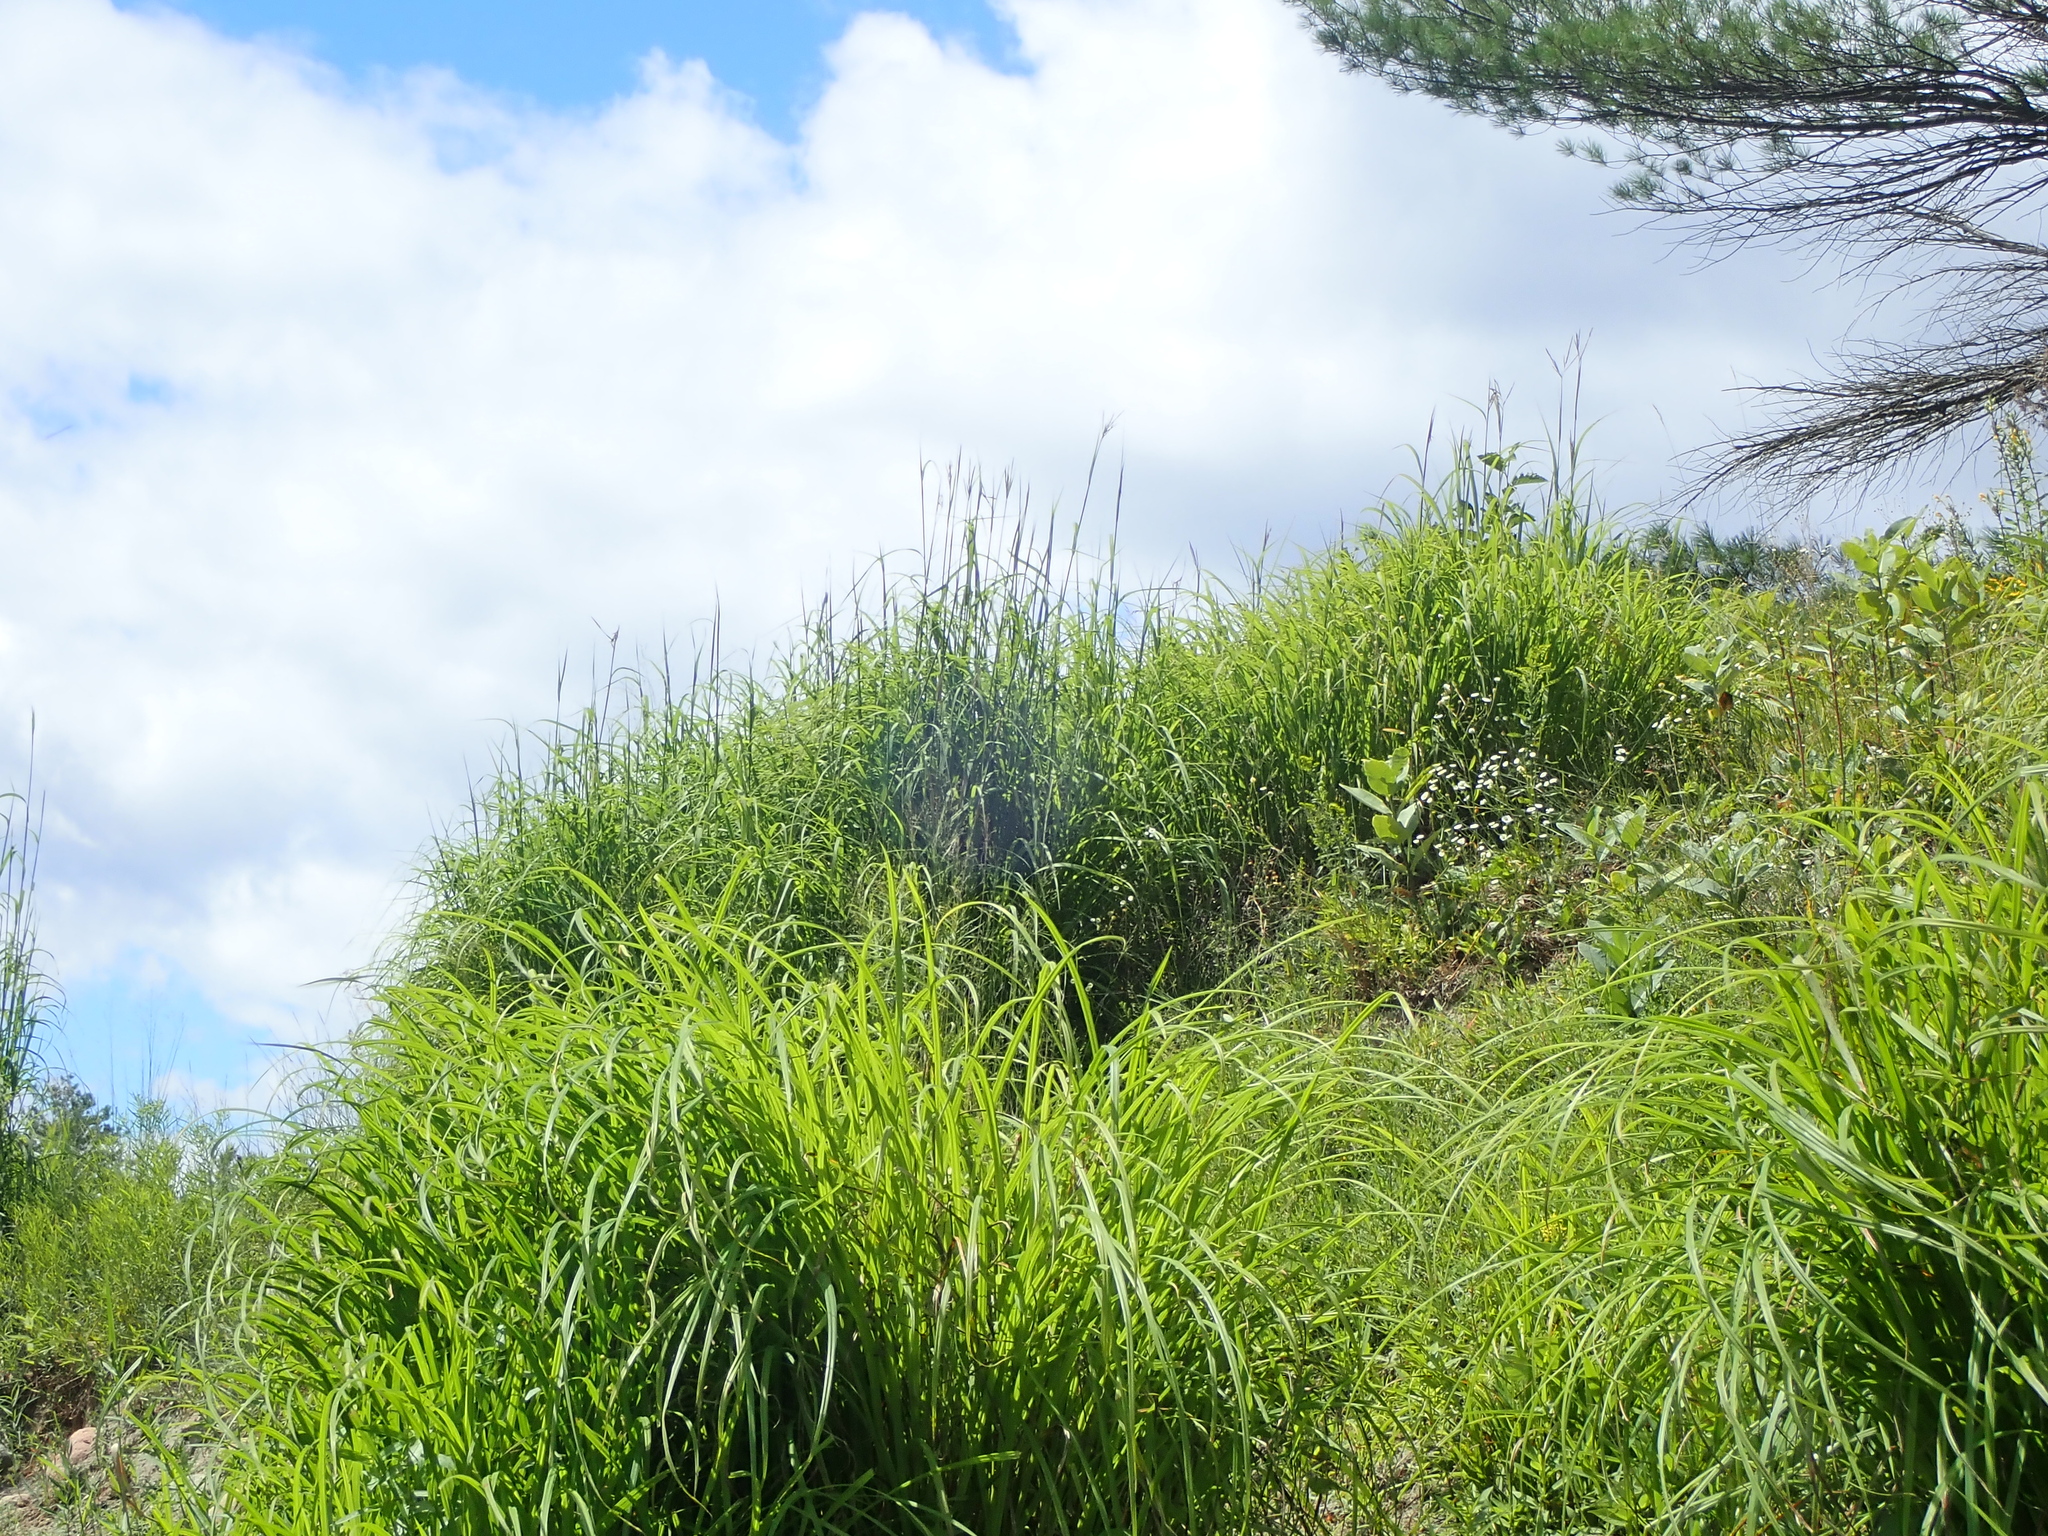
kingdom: Plantae
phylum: Tracheophyta
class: Liliopsida
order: Poales
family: Poaceae
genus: Andropogon
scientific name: Andropogon gerardi
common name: Big bluestem
